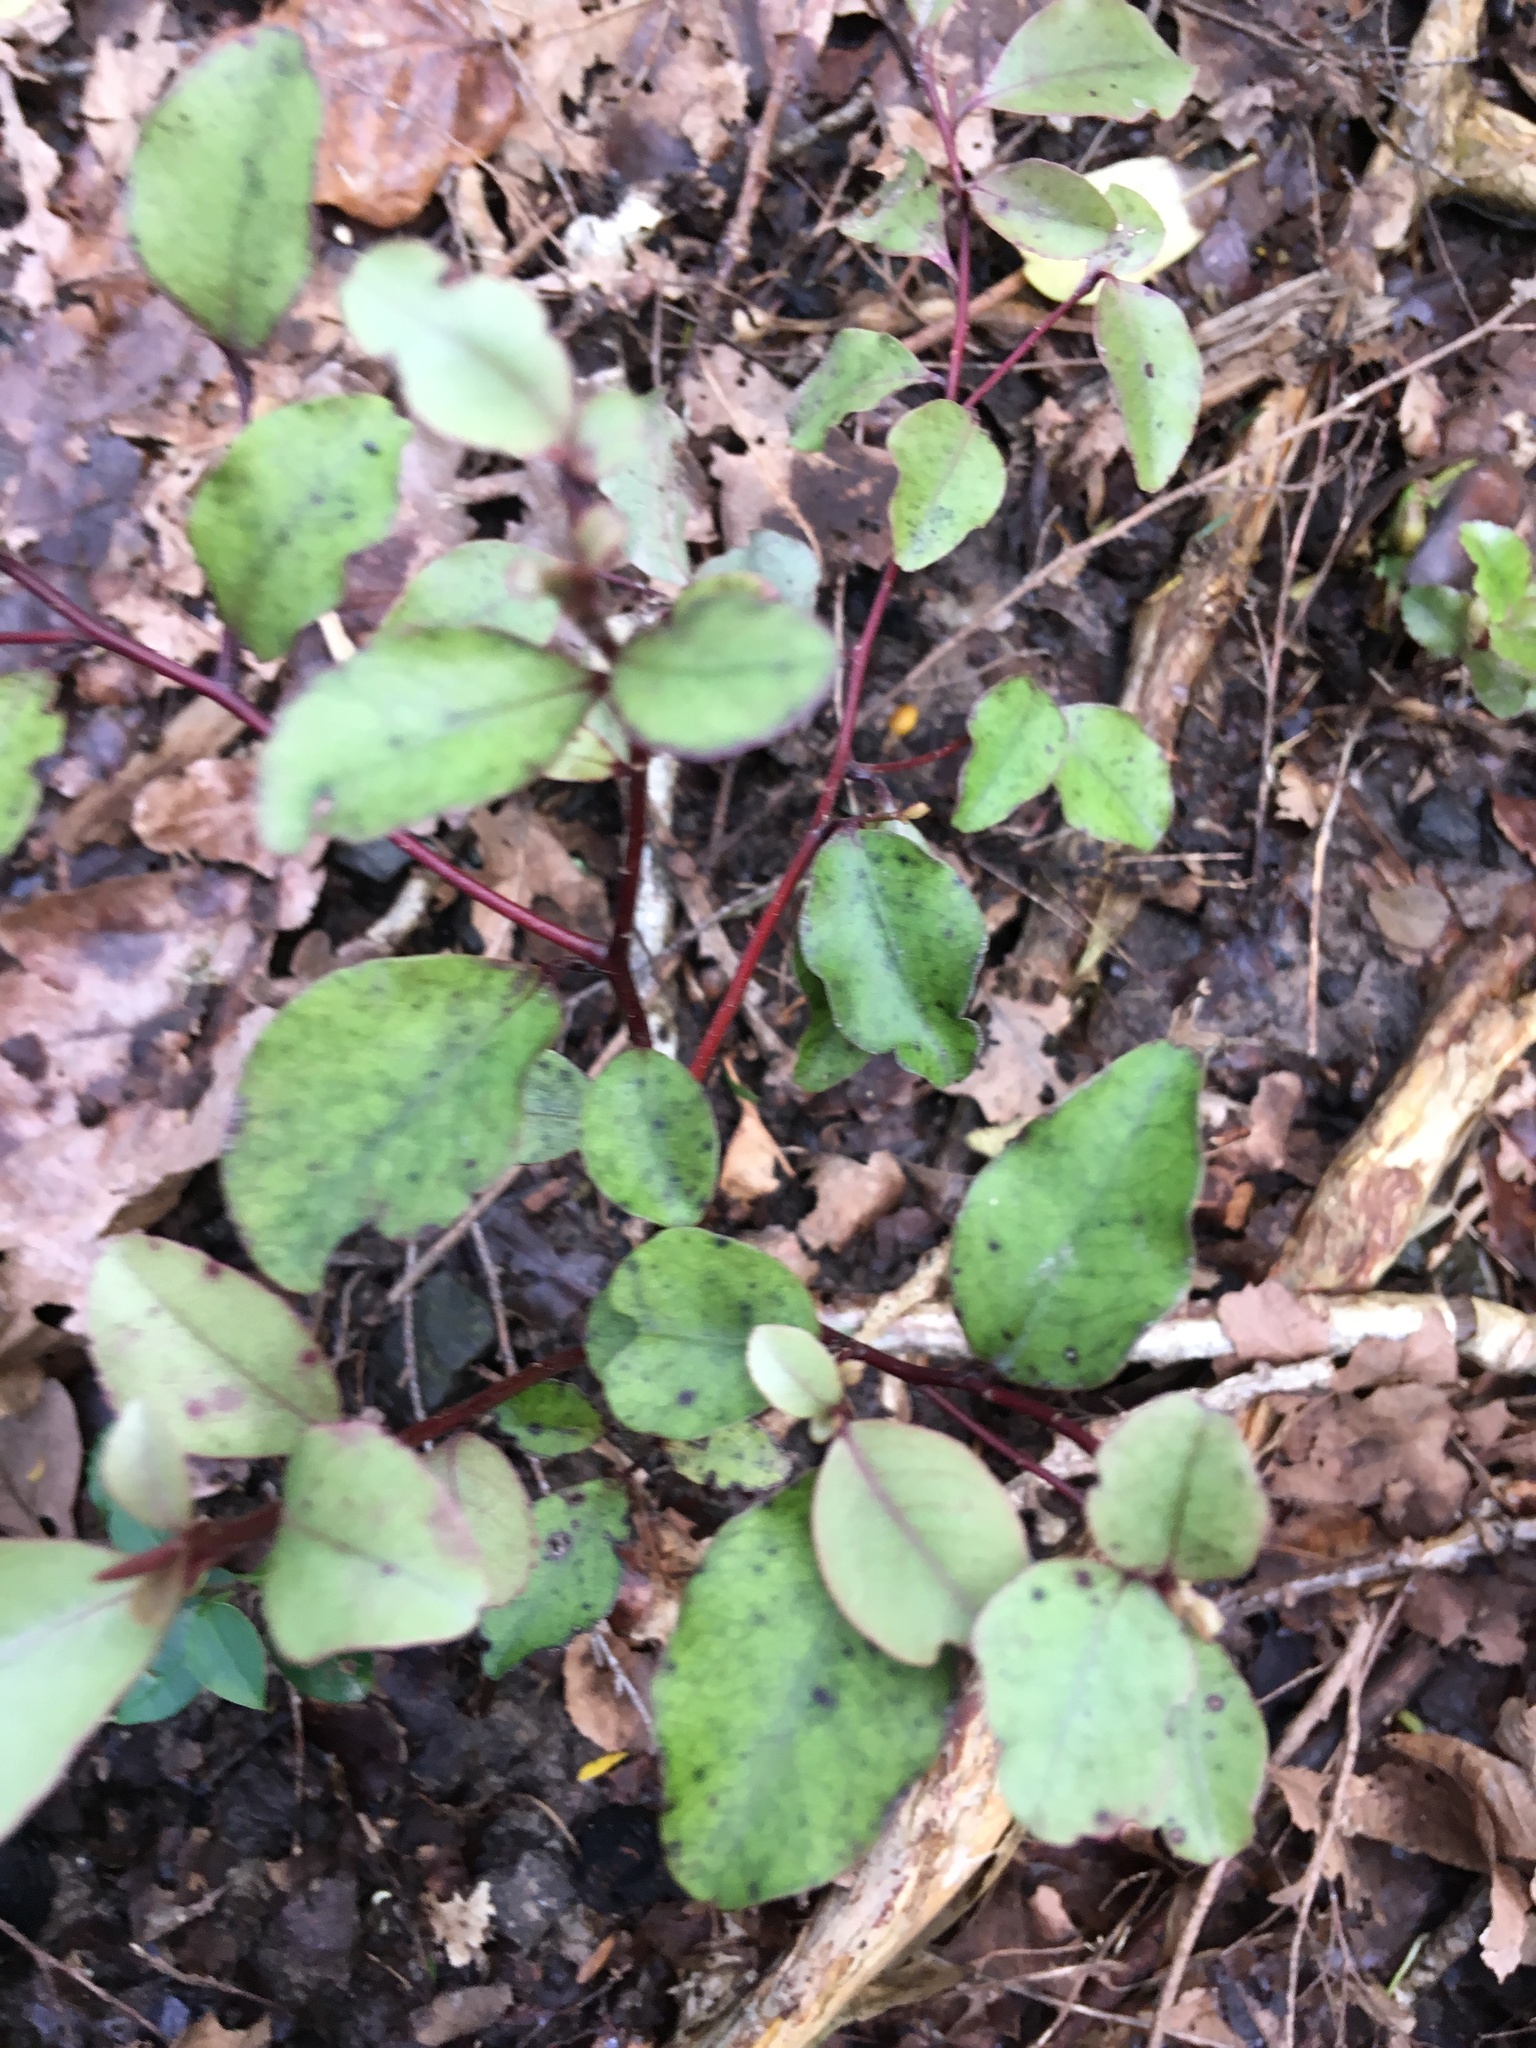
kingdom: Plantae
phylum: Tracheophyta
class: Magnoliopsida
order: Ericales
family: Primulaceae
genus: Myrsine
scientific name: Myrsine australis
